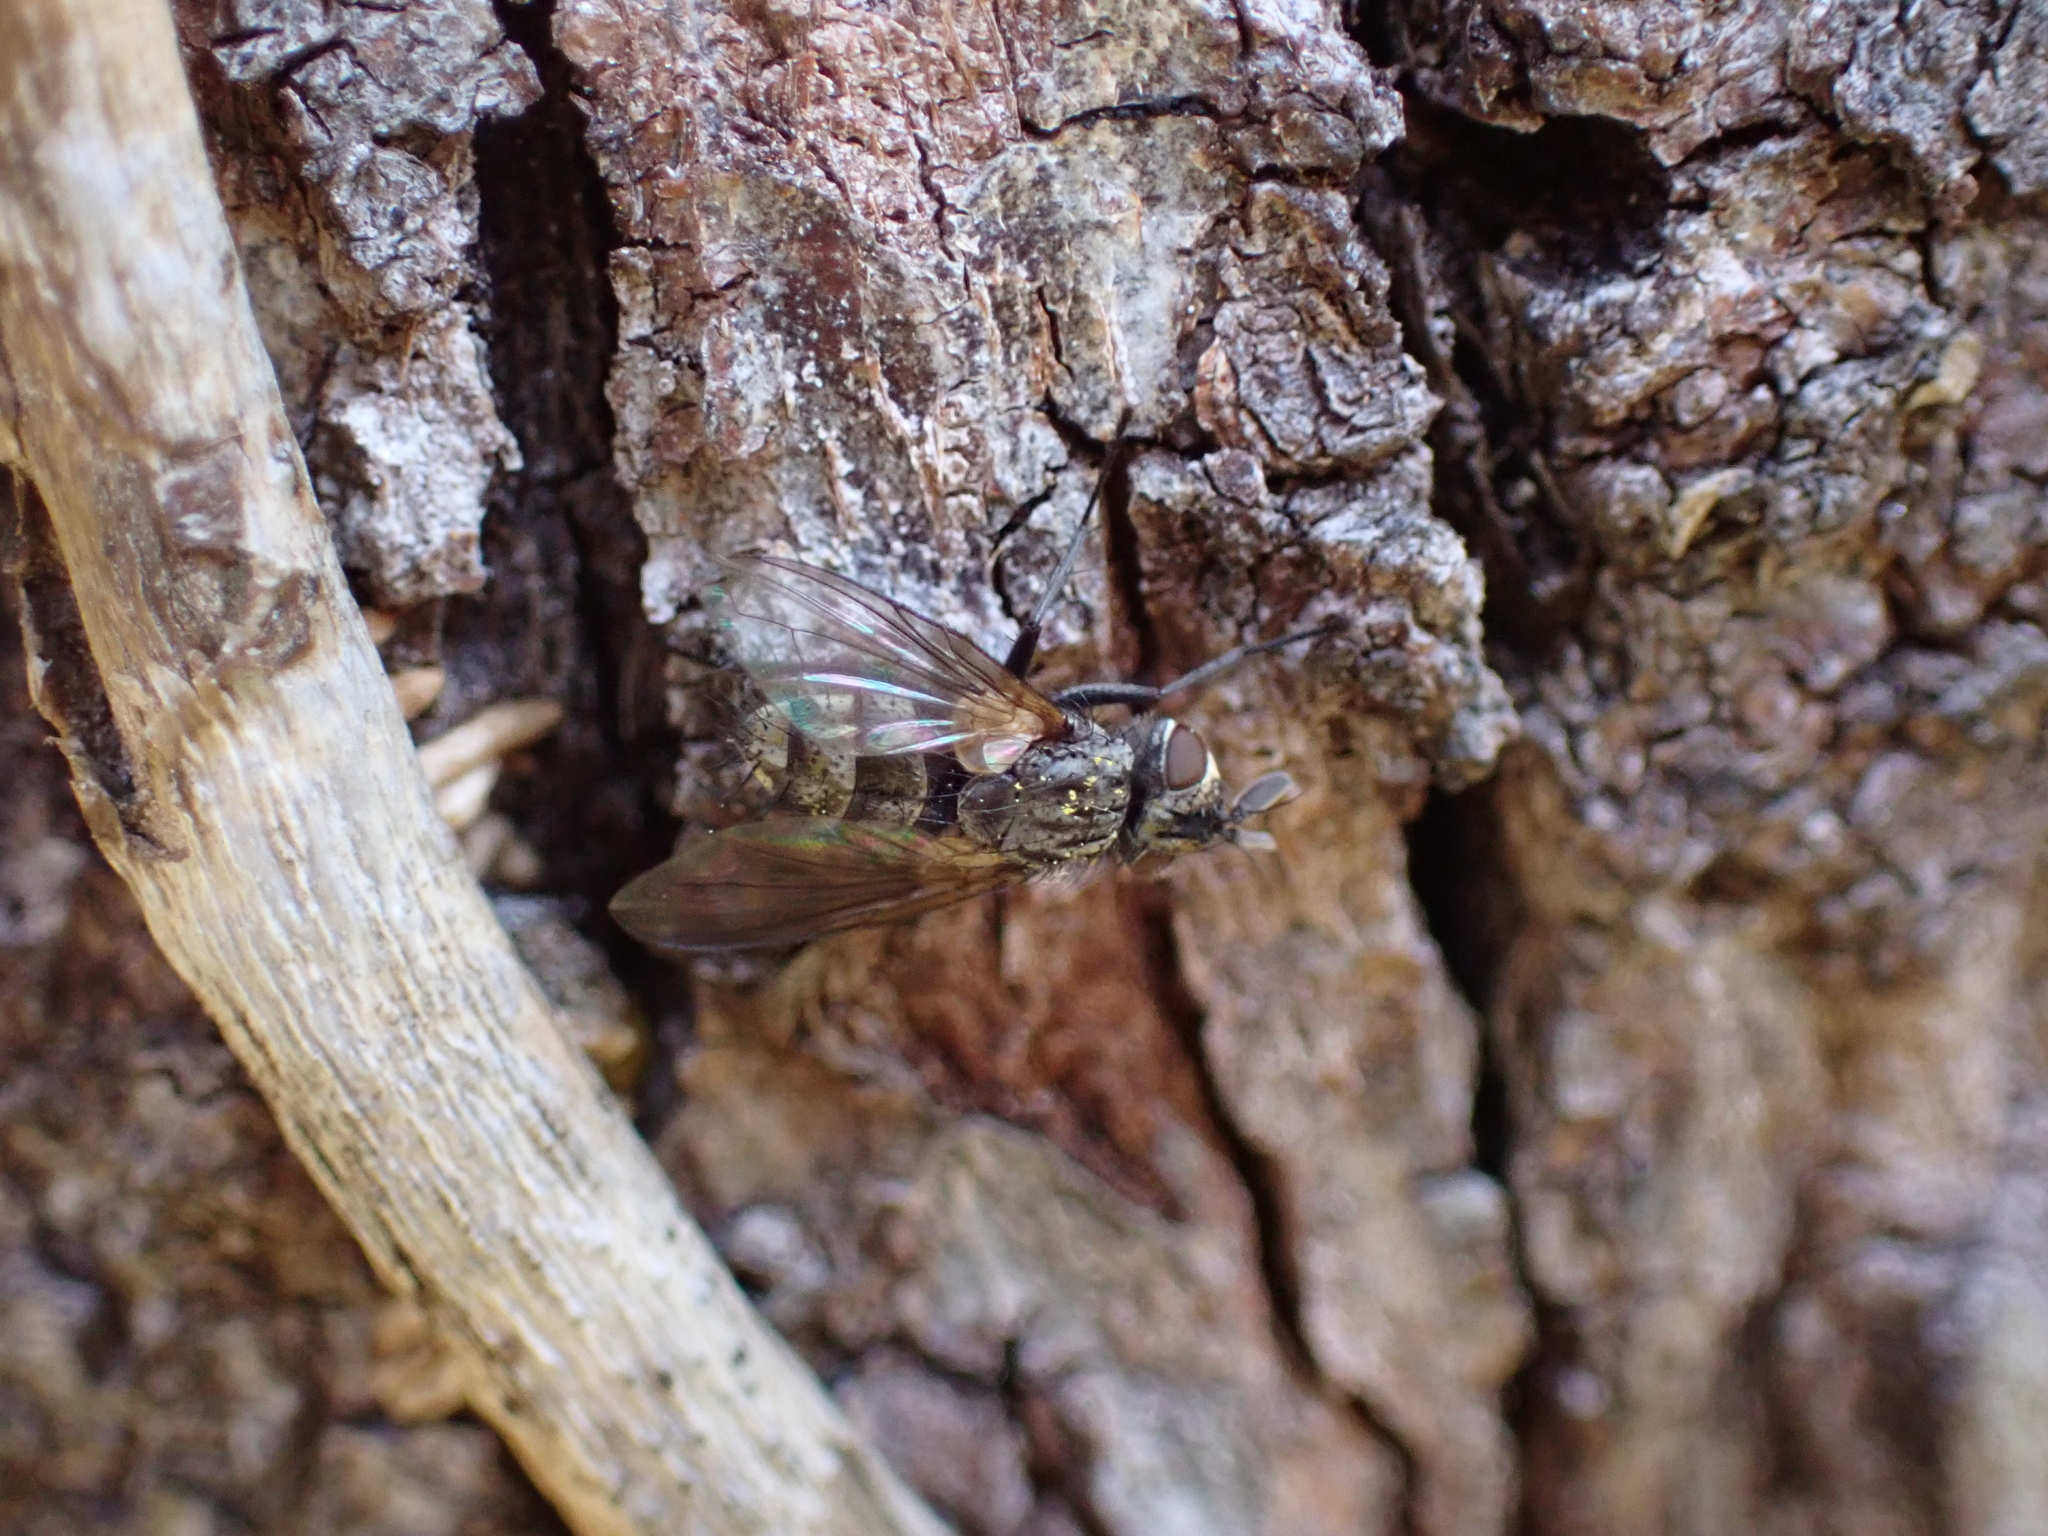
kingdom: Animalia
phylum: Arthropoda
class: Insecta
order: Diptera
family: Tachinidae
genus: Triarthria
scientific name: Triarthria setipennis
